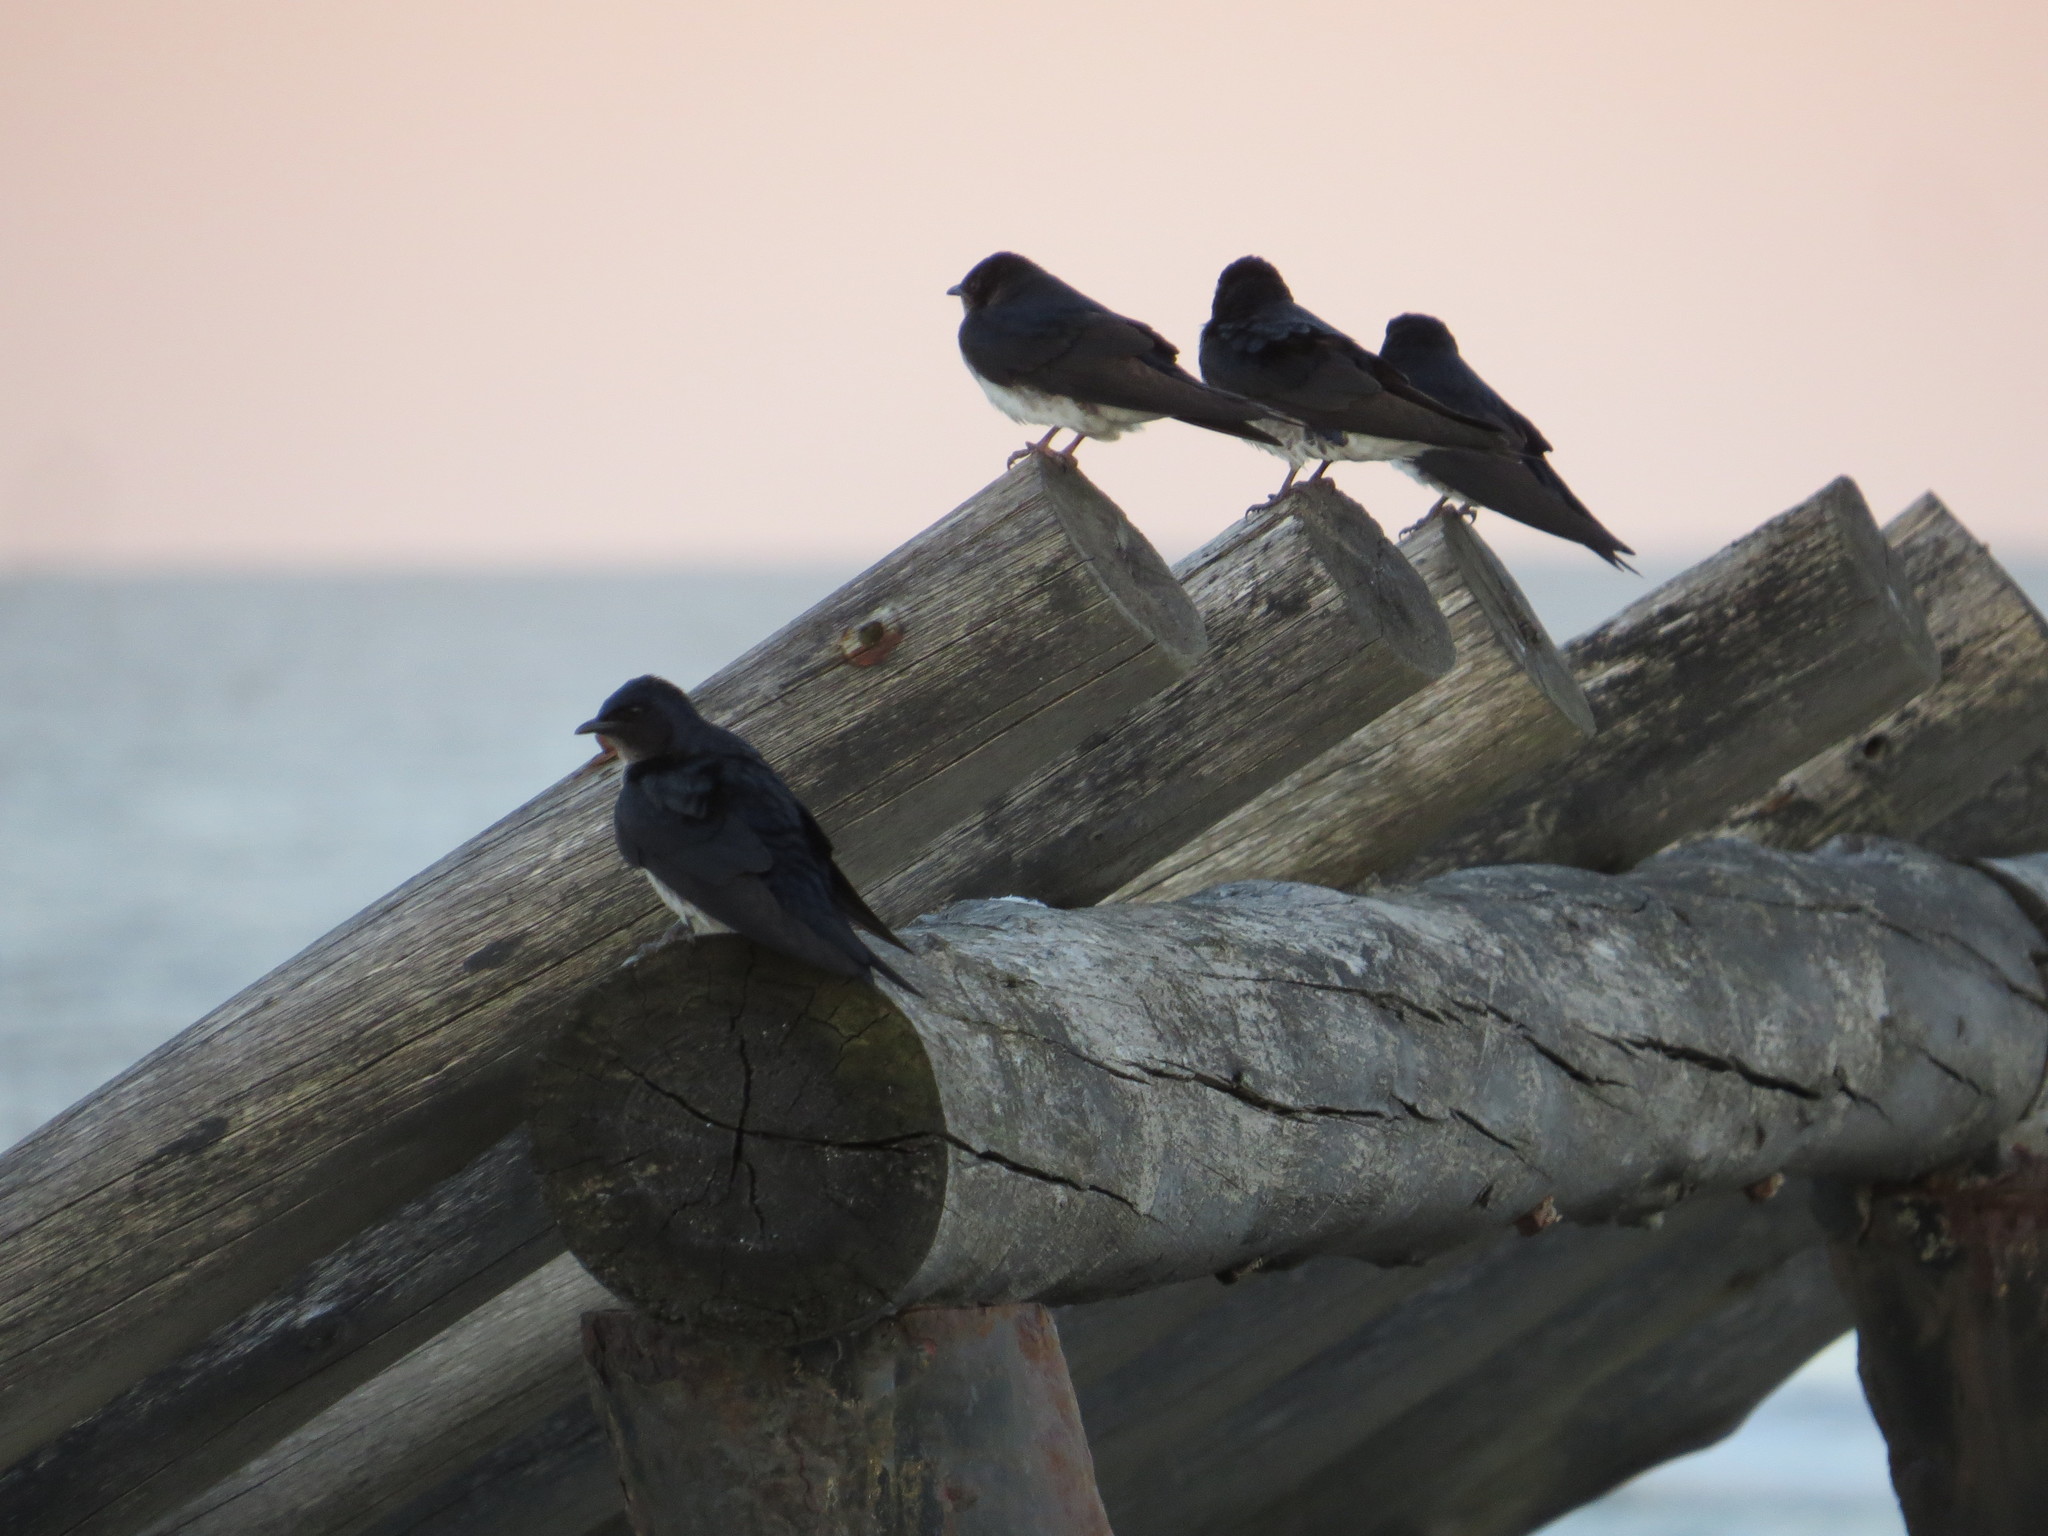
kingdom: Animalia
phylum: Chordata
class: Aves
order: Passeriformes
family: Hirundinidae
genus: Progne
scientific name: Progne chalybea
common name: Grey-breasted martin
